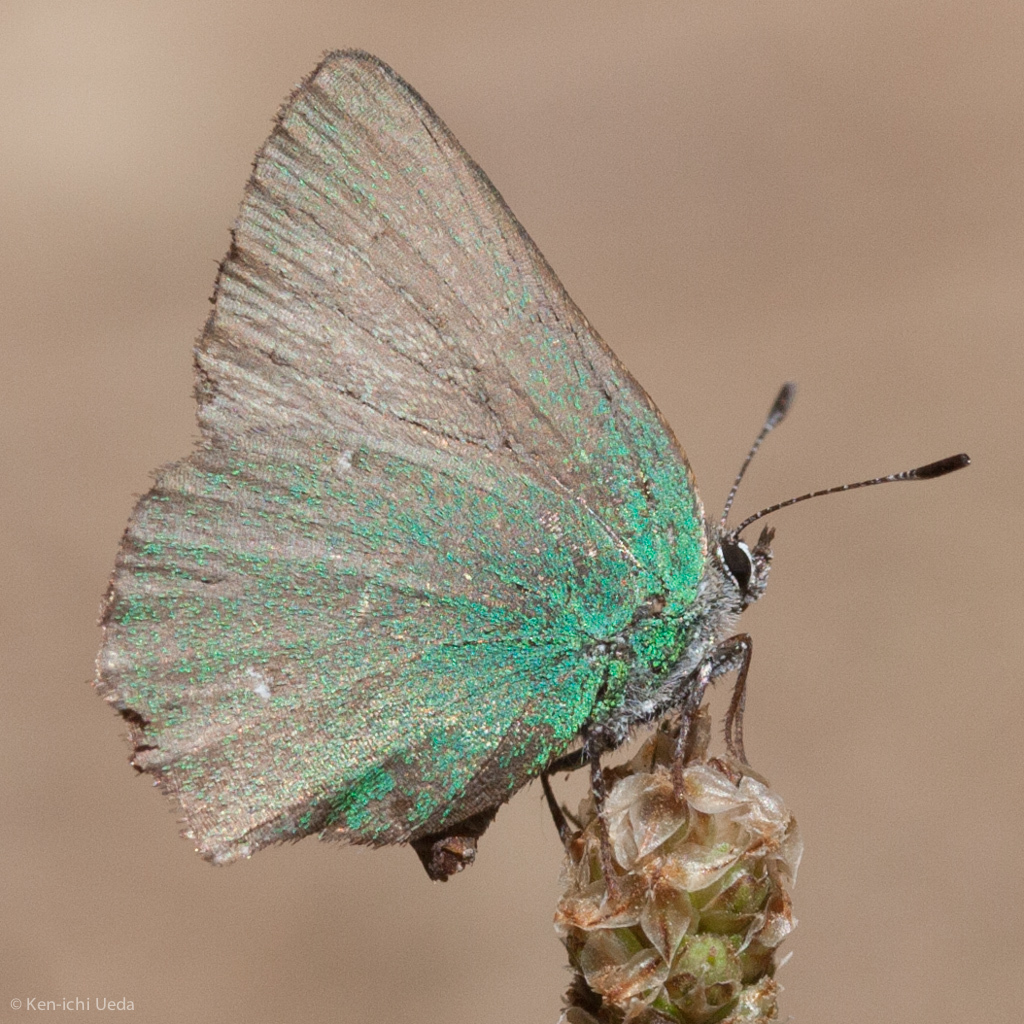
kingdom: Animalia
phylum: Arthropoda
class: Insecta
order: Lepidoptera
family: Lycaenidae
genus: Callophrys
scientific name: Callophrys dumetorum
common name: Bramble hairstreak
